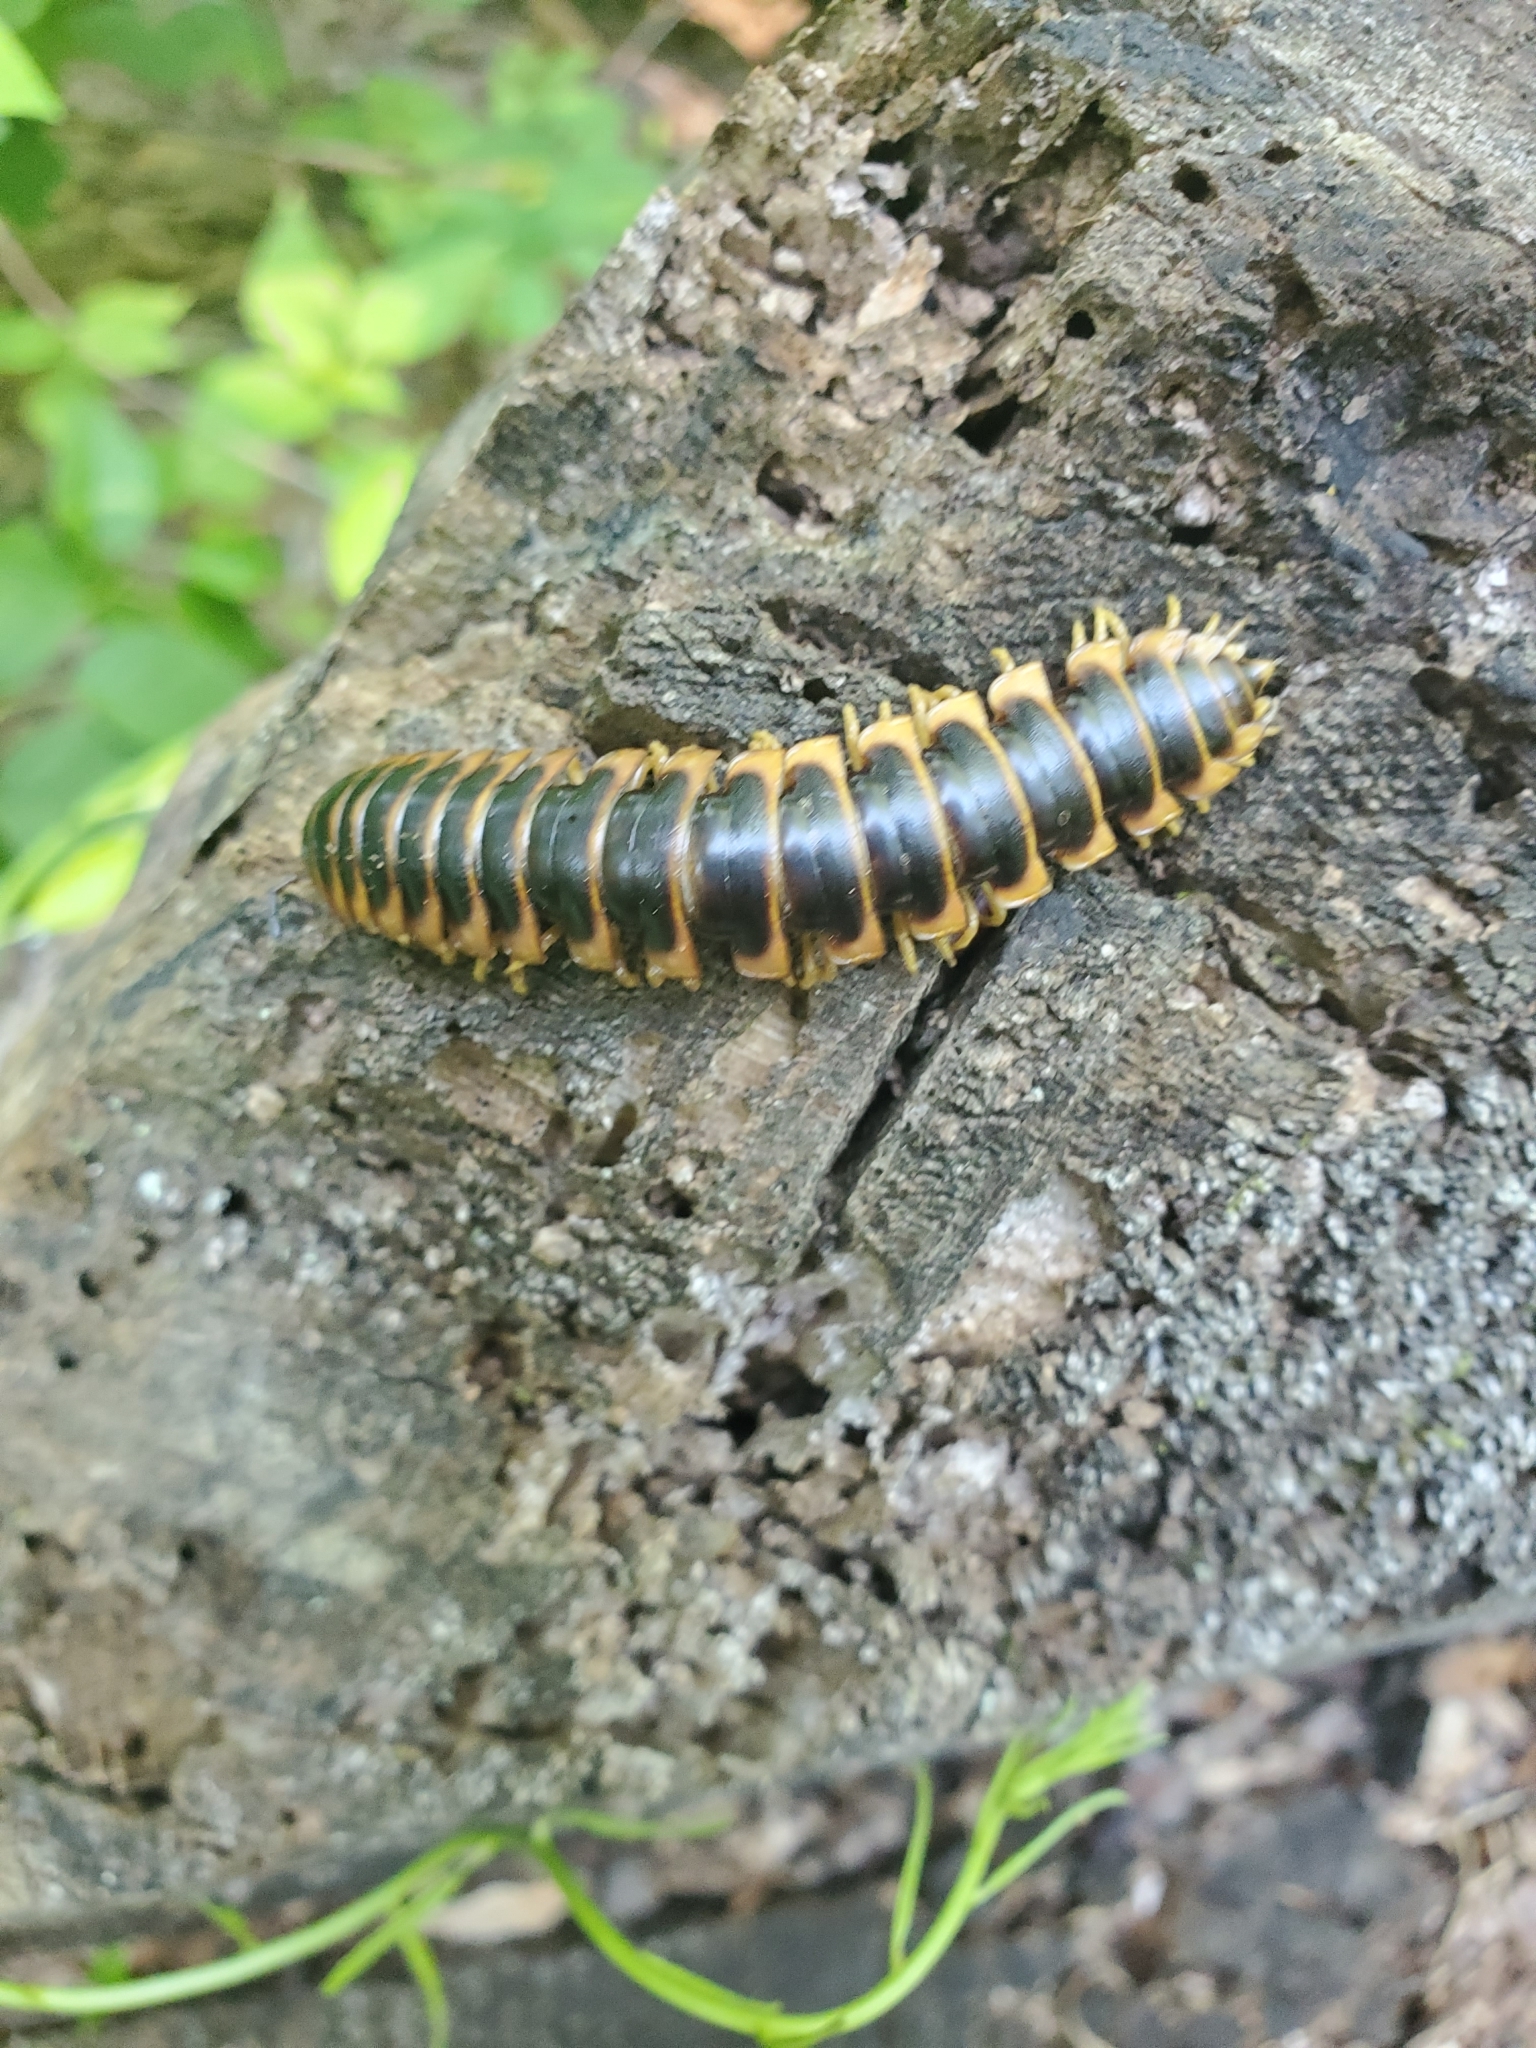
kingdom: Animalia
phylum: Arthropoda
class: Diplopoda
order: Polydesmida
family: Xystodesmidae
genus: Apheloria
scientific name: Apheloria virginiensis
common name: Black-and-gold flat millipede
